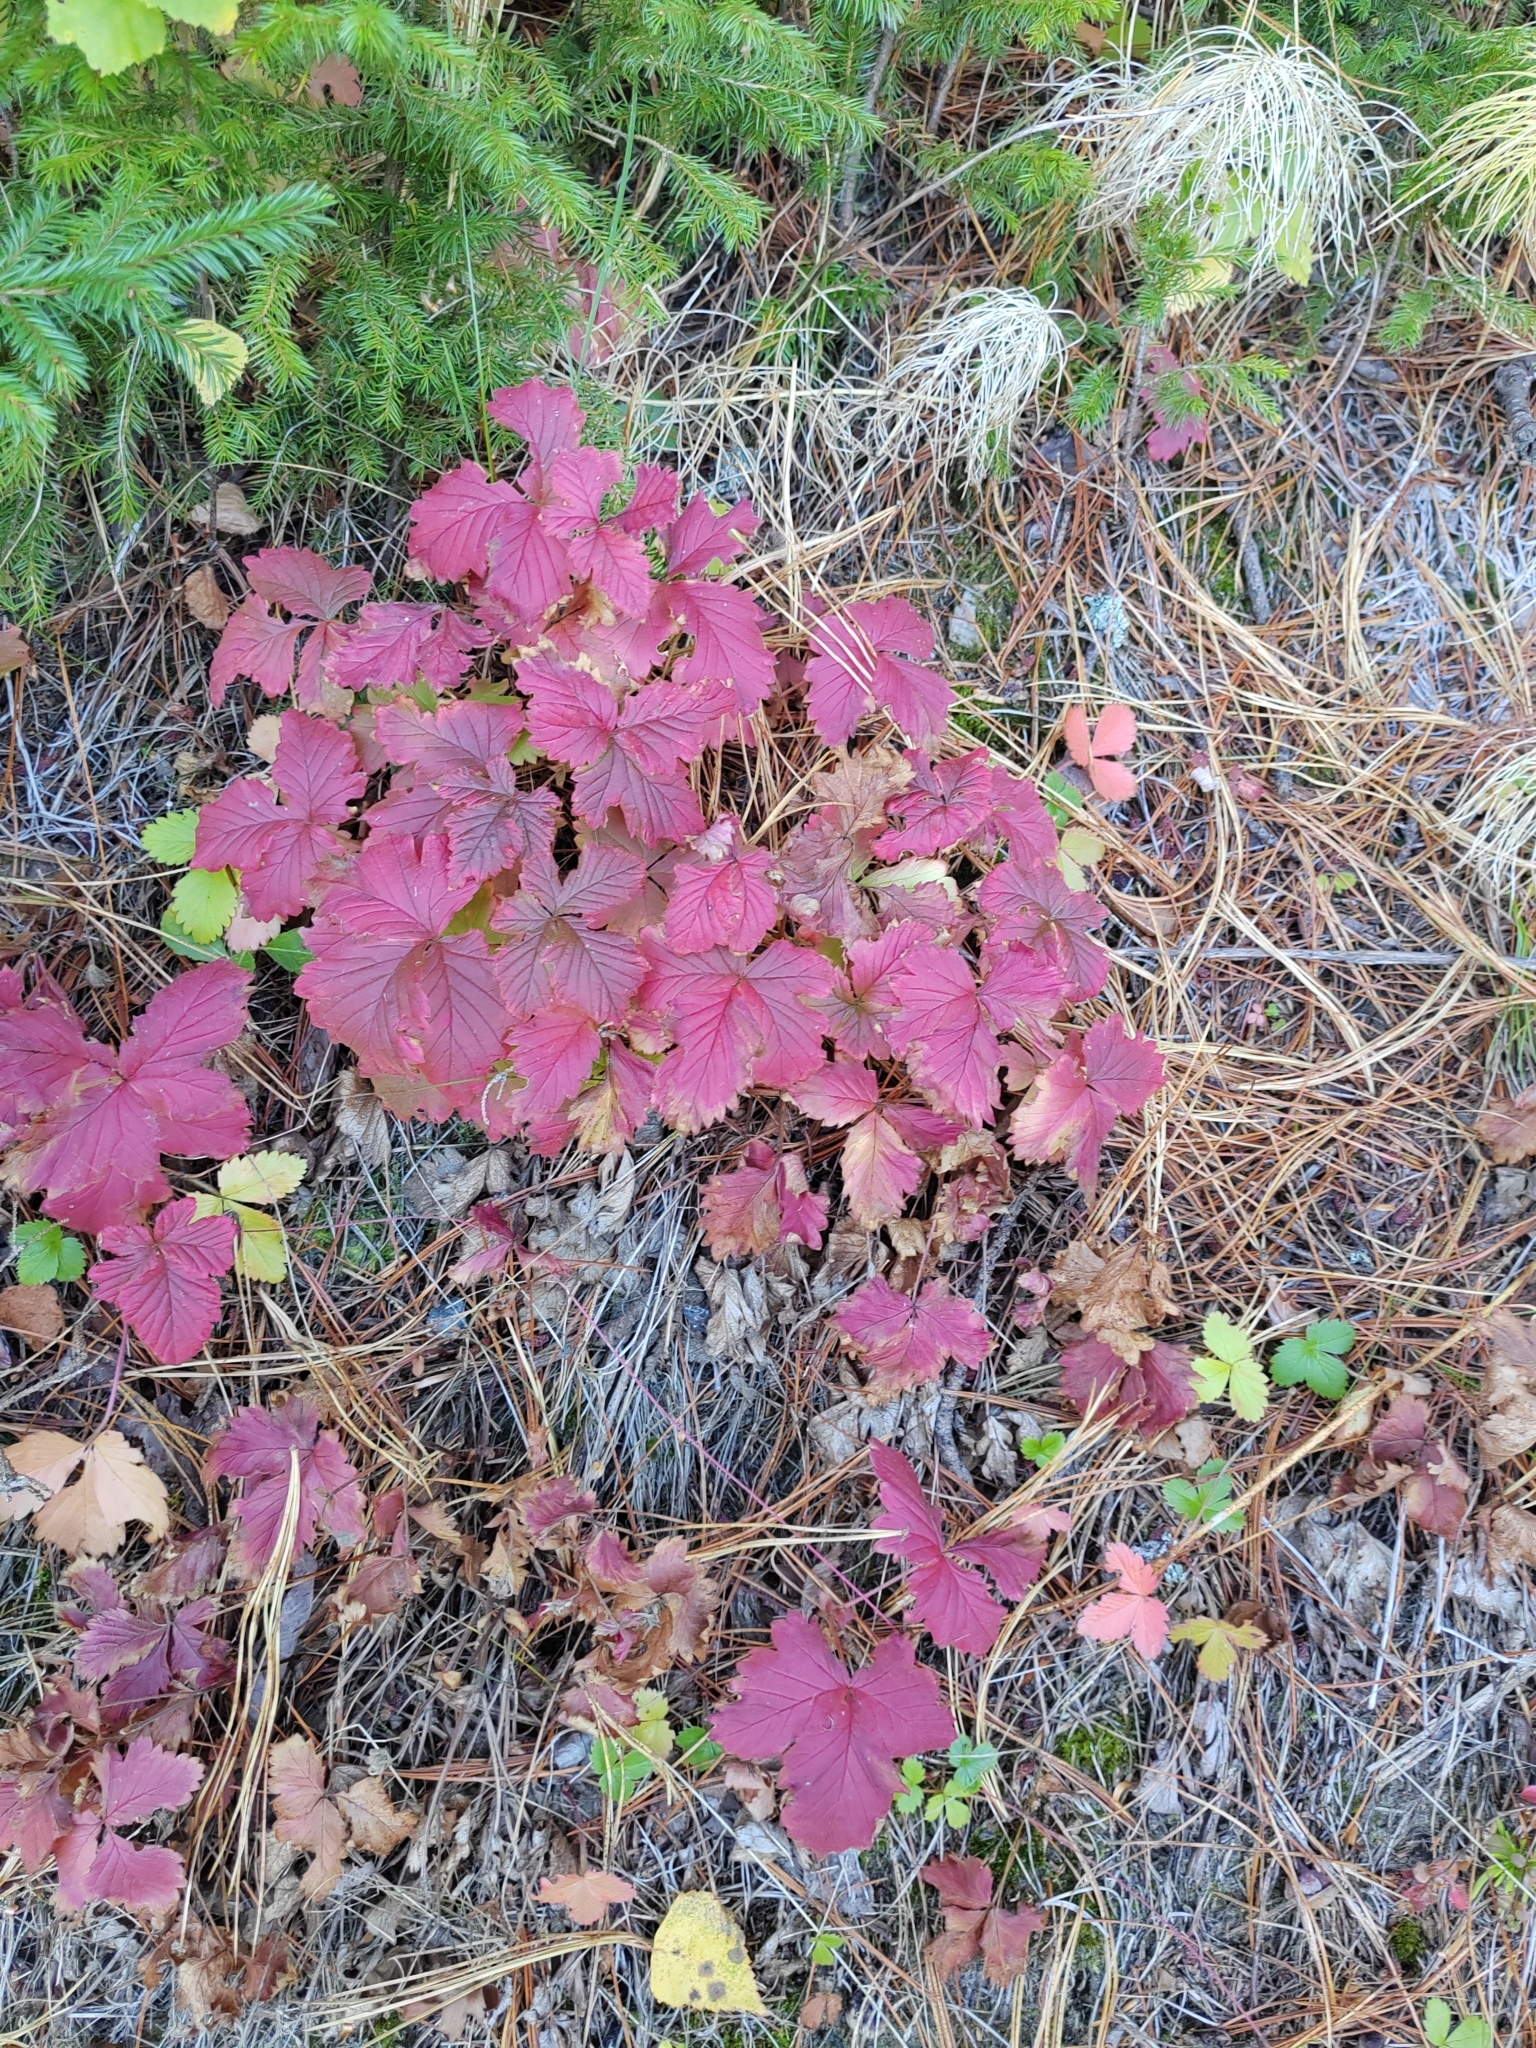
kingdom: Plantae
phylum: Tracheophyta
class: Magnoliopsida
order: Rosales
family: Rosaceae
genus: Rubus
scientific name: Rubus arcticus
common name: Arctic bramble
